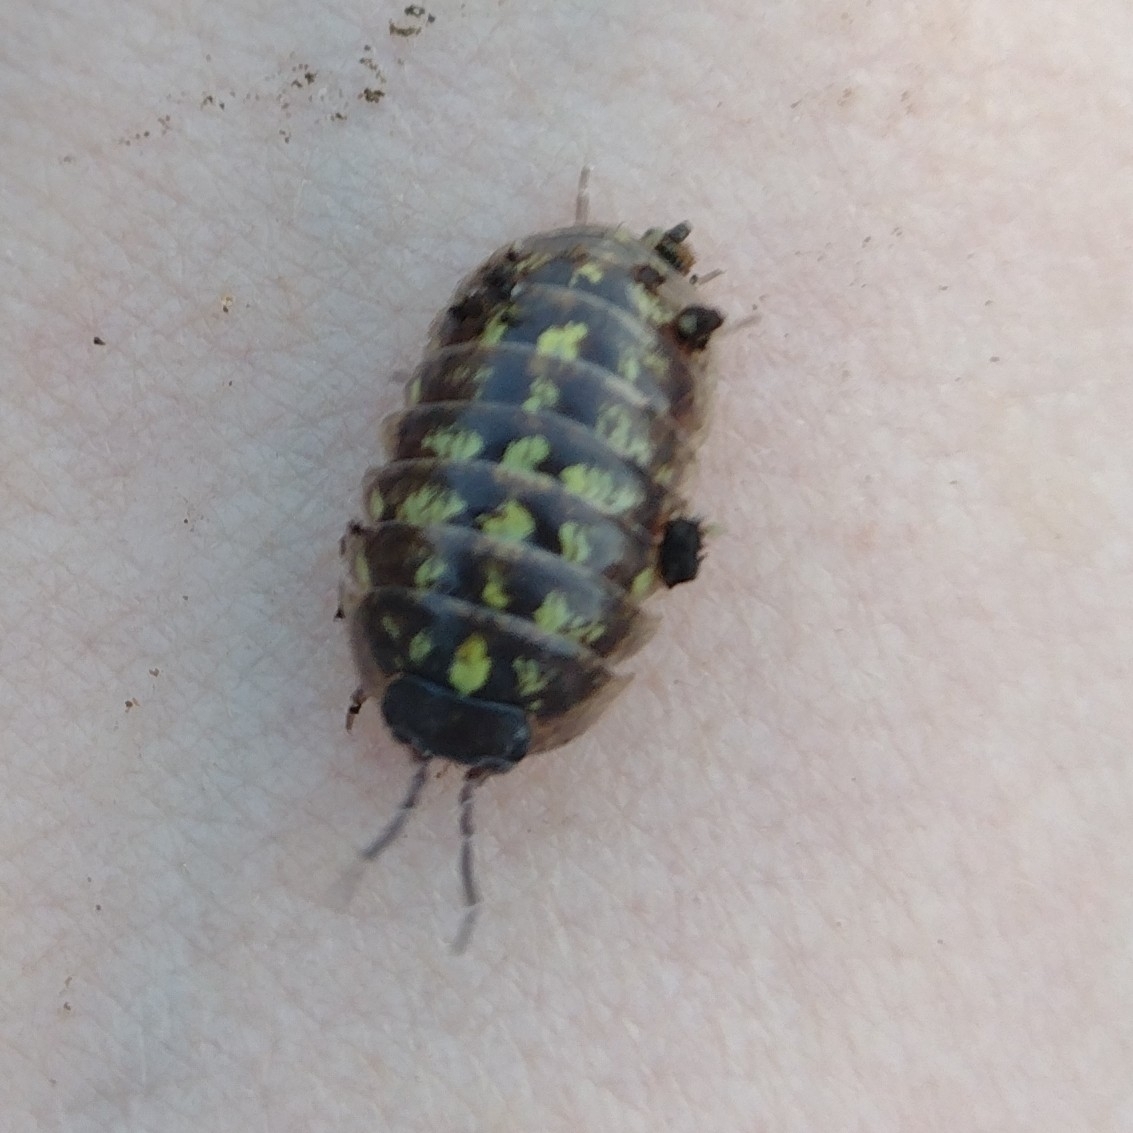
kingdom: Animalia
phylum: Arthropoda
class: Malacostraca
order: Isopoda
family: Armadillidiidae
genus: Armadillidium
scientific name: Armadillidium vulgare
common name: Common pill woodlouse
